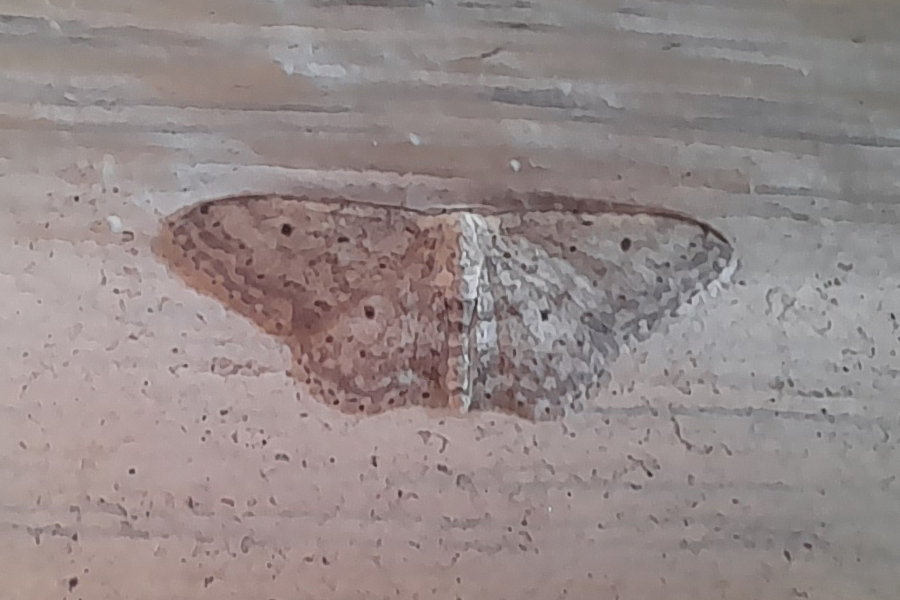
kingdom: Animalia
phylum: Arthropoda
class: Insecta
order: Lepidoptera
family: Geometridae
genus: Idaea
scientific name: Idaea seriata
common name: Small dusty wave
